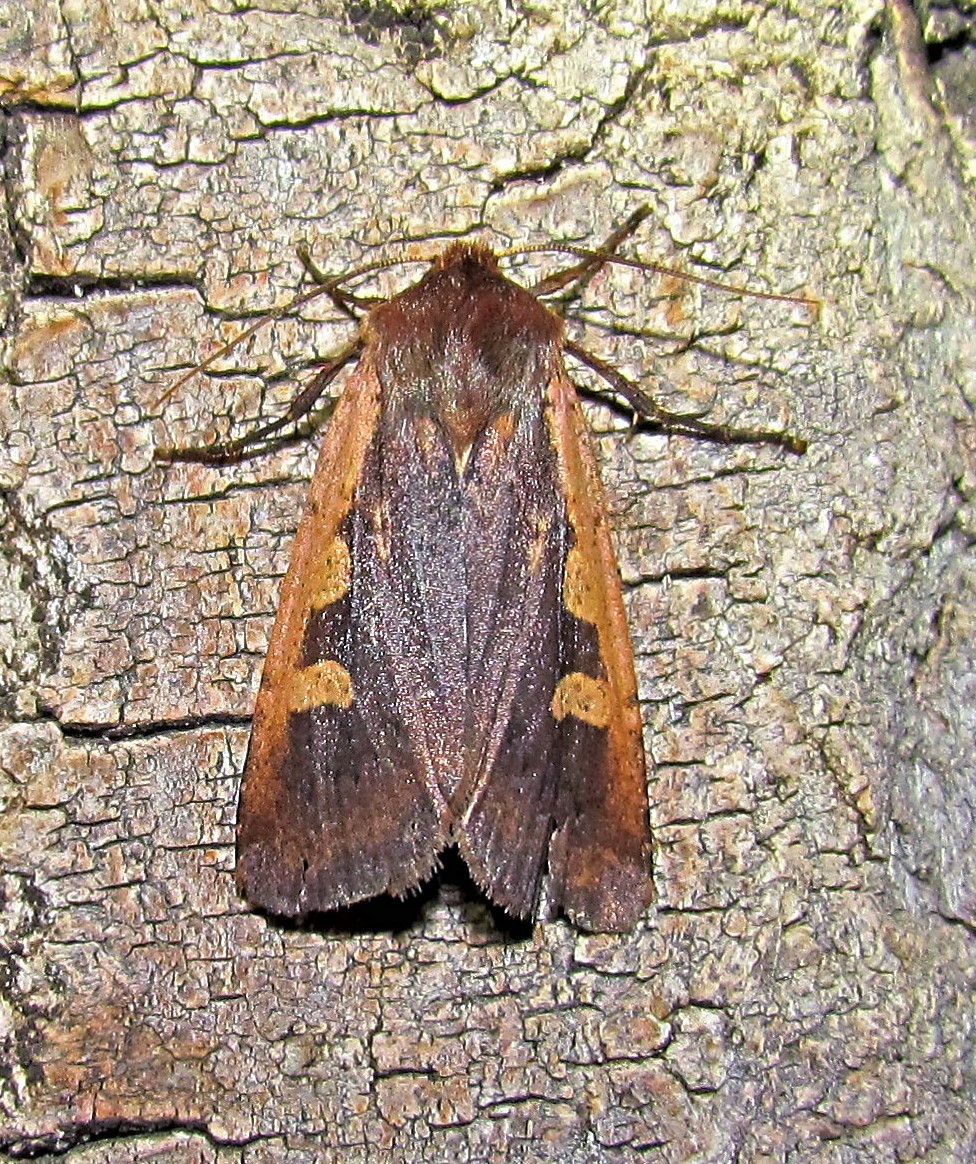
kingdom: Animalia
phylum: Arthropoda
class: Insecta
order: Lepidoptera
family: Noctuidae
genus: Pareuxoa
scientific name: Pareuxoa
